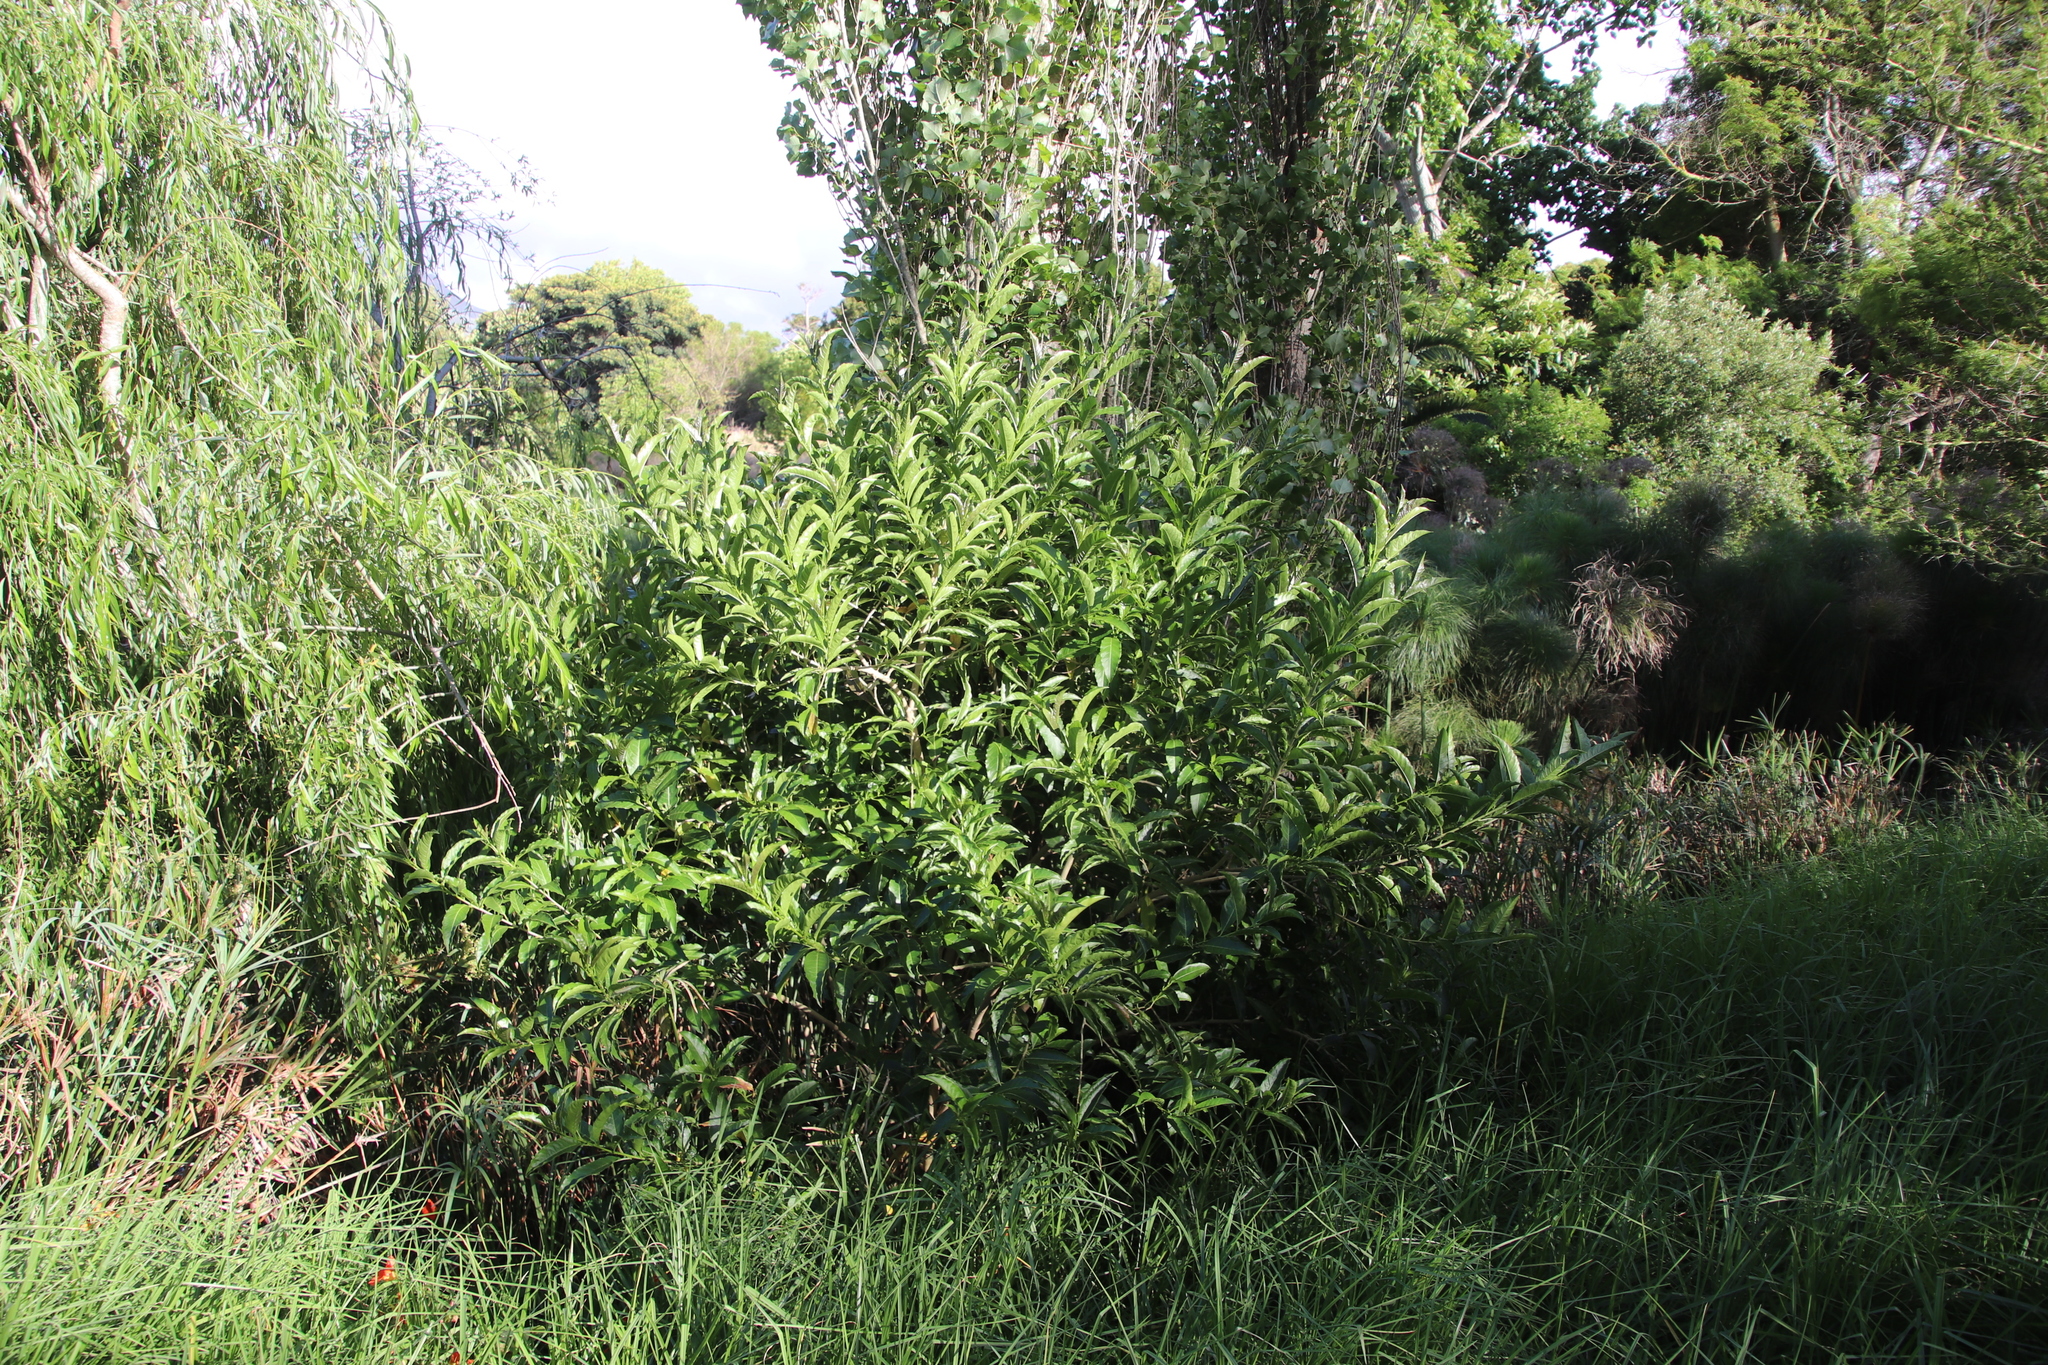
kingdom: Plantae
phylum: Tracheophyta
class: Magnoliopsida
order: Solanales
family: Solanaceae
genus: Cestrum
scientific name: Cestrum laevigatum
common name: Inkberry
